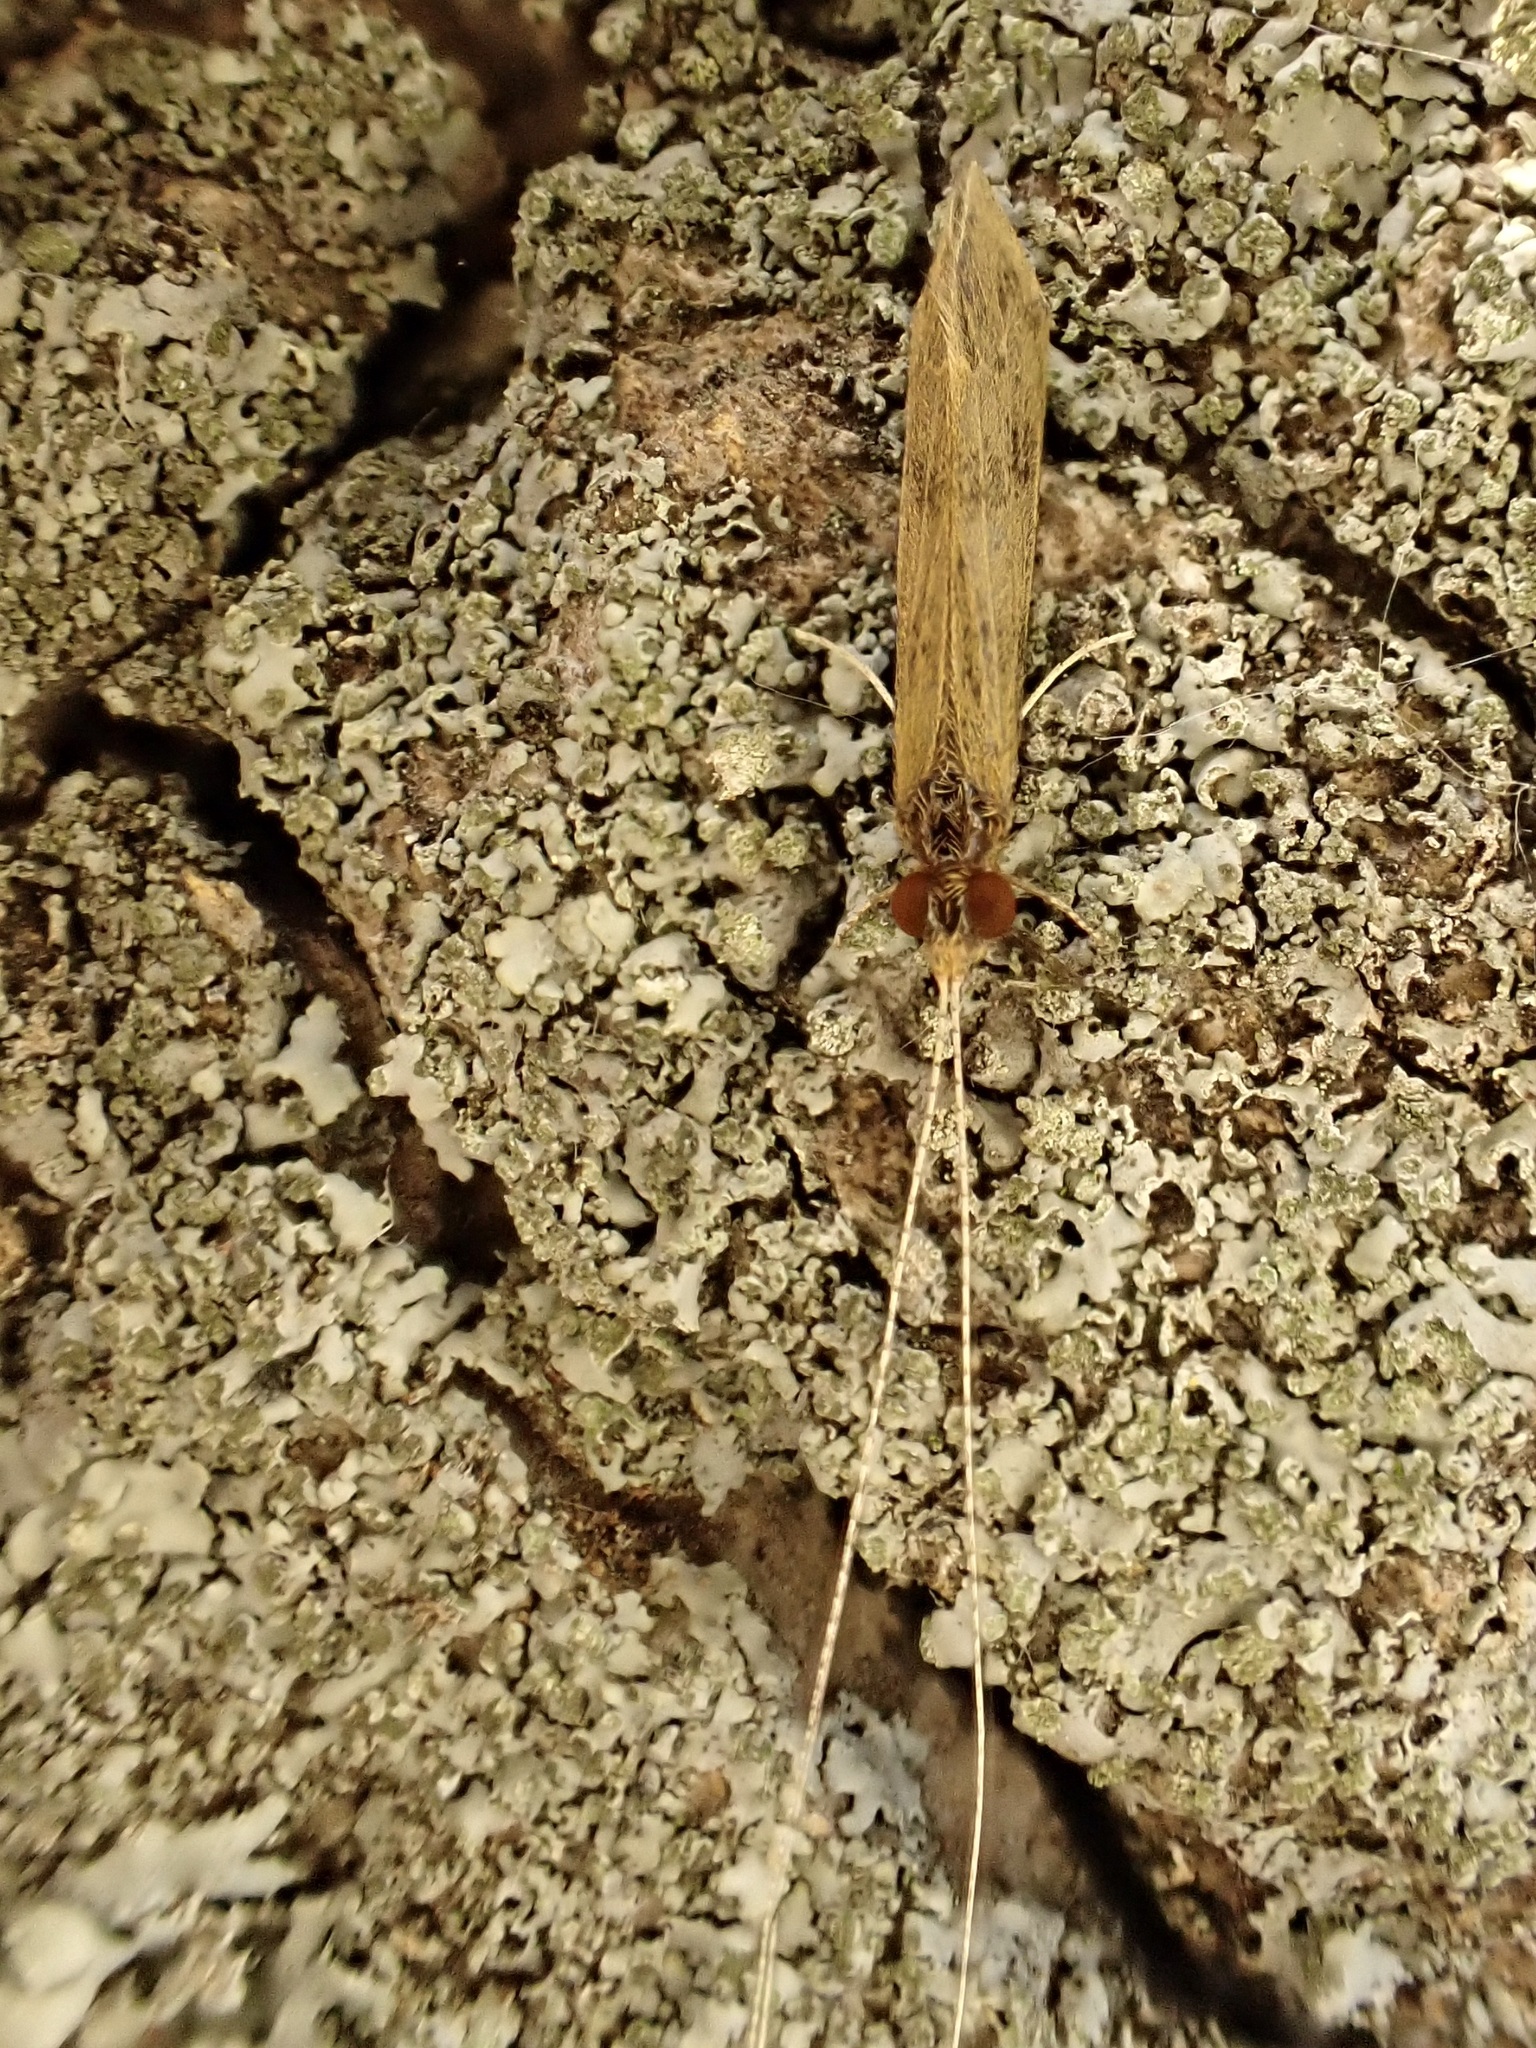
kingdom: Animalia
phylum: Arthropoda
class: Insecta
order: Trichoptera
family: Leptoceridae
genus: Mystacides
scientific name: Mystacides longicornis
